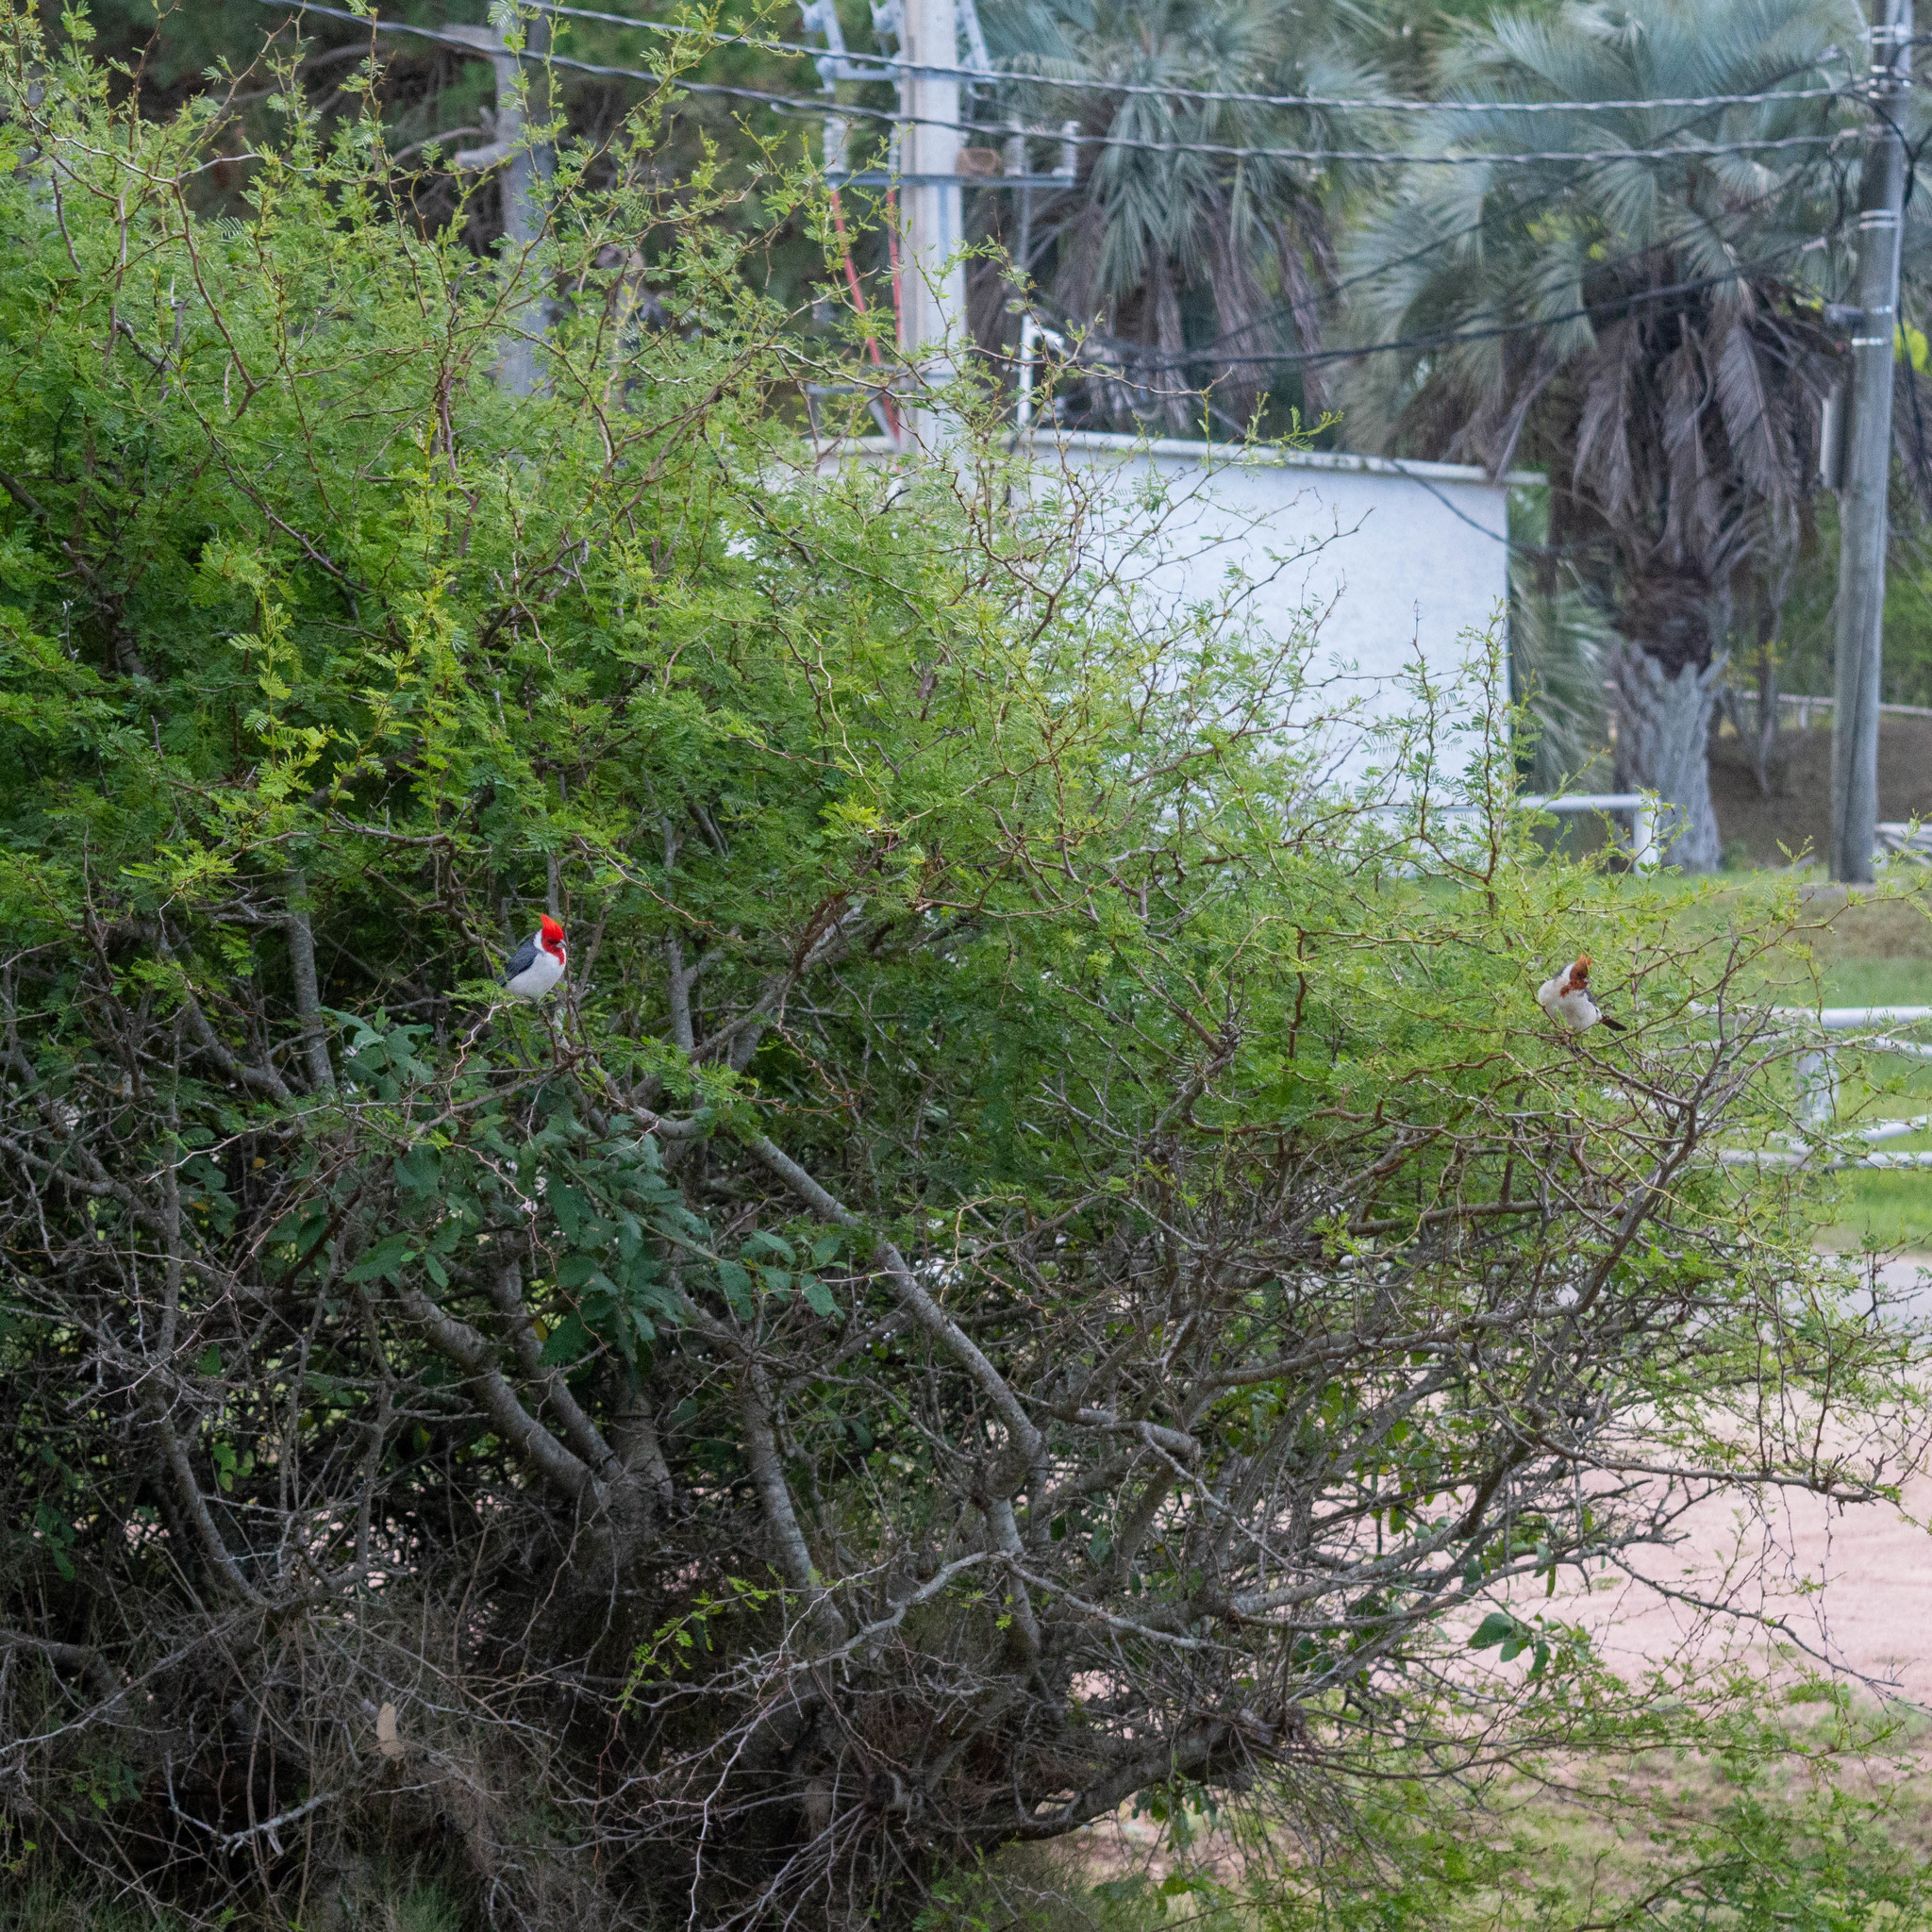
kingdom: Animalia
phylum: Chordata
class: Aves
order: Passeriformes
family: Thraupidae
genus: Paroaria
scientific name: Paroaria coronata
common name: Red-crested cardinal
